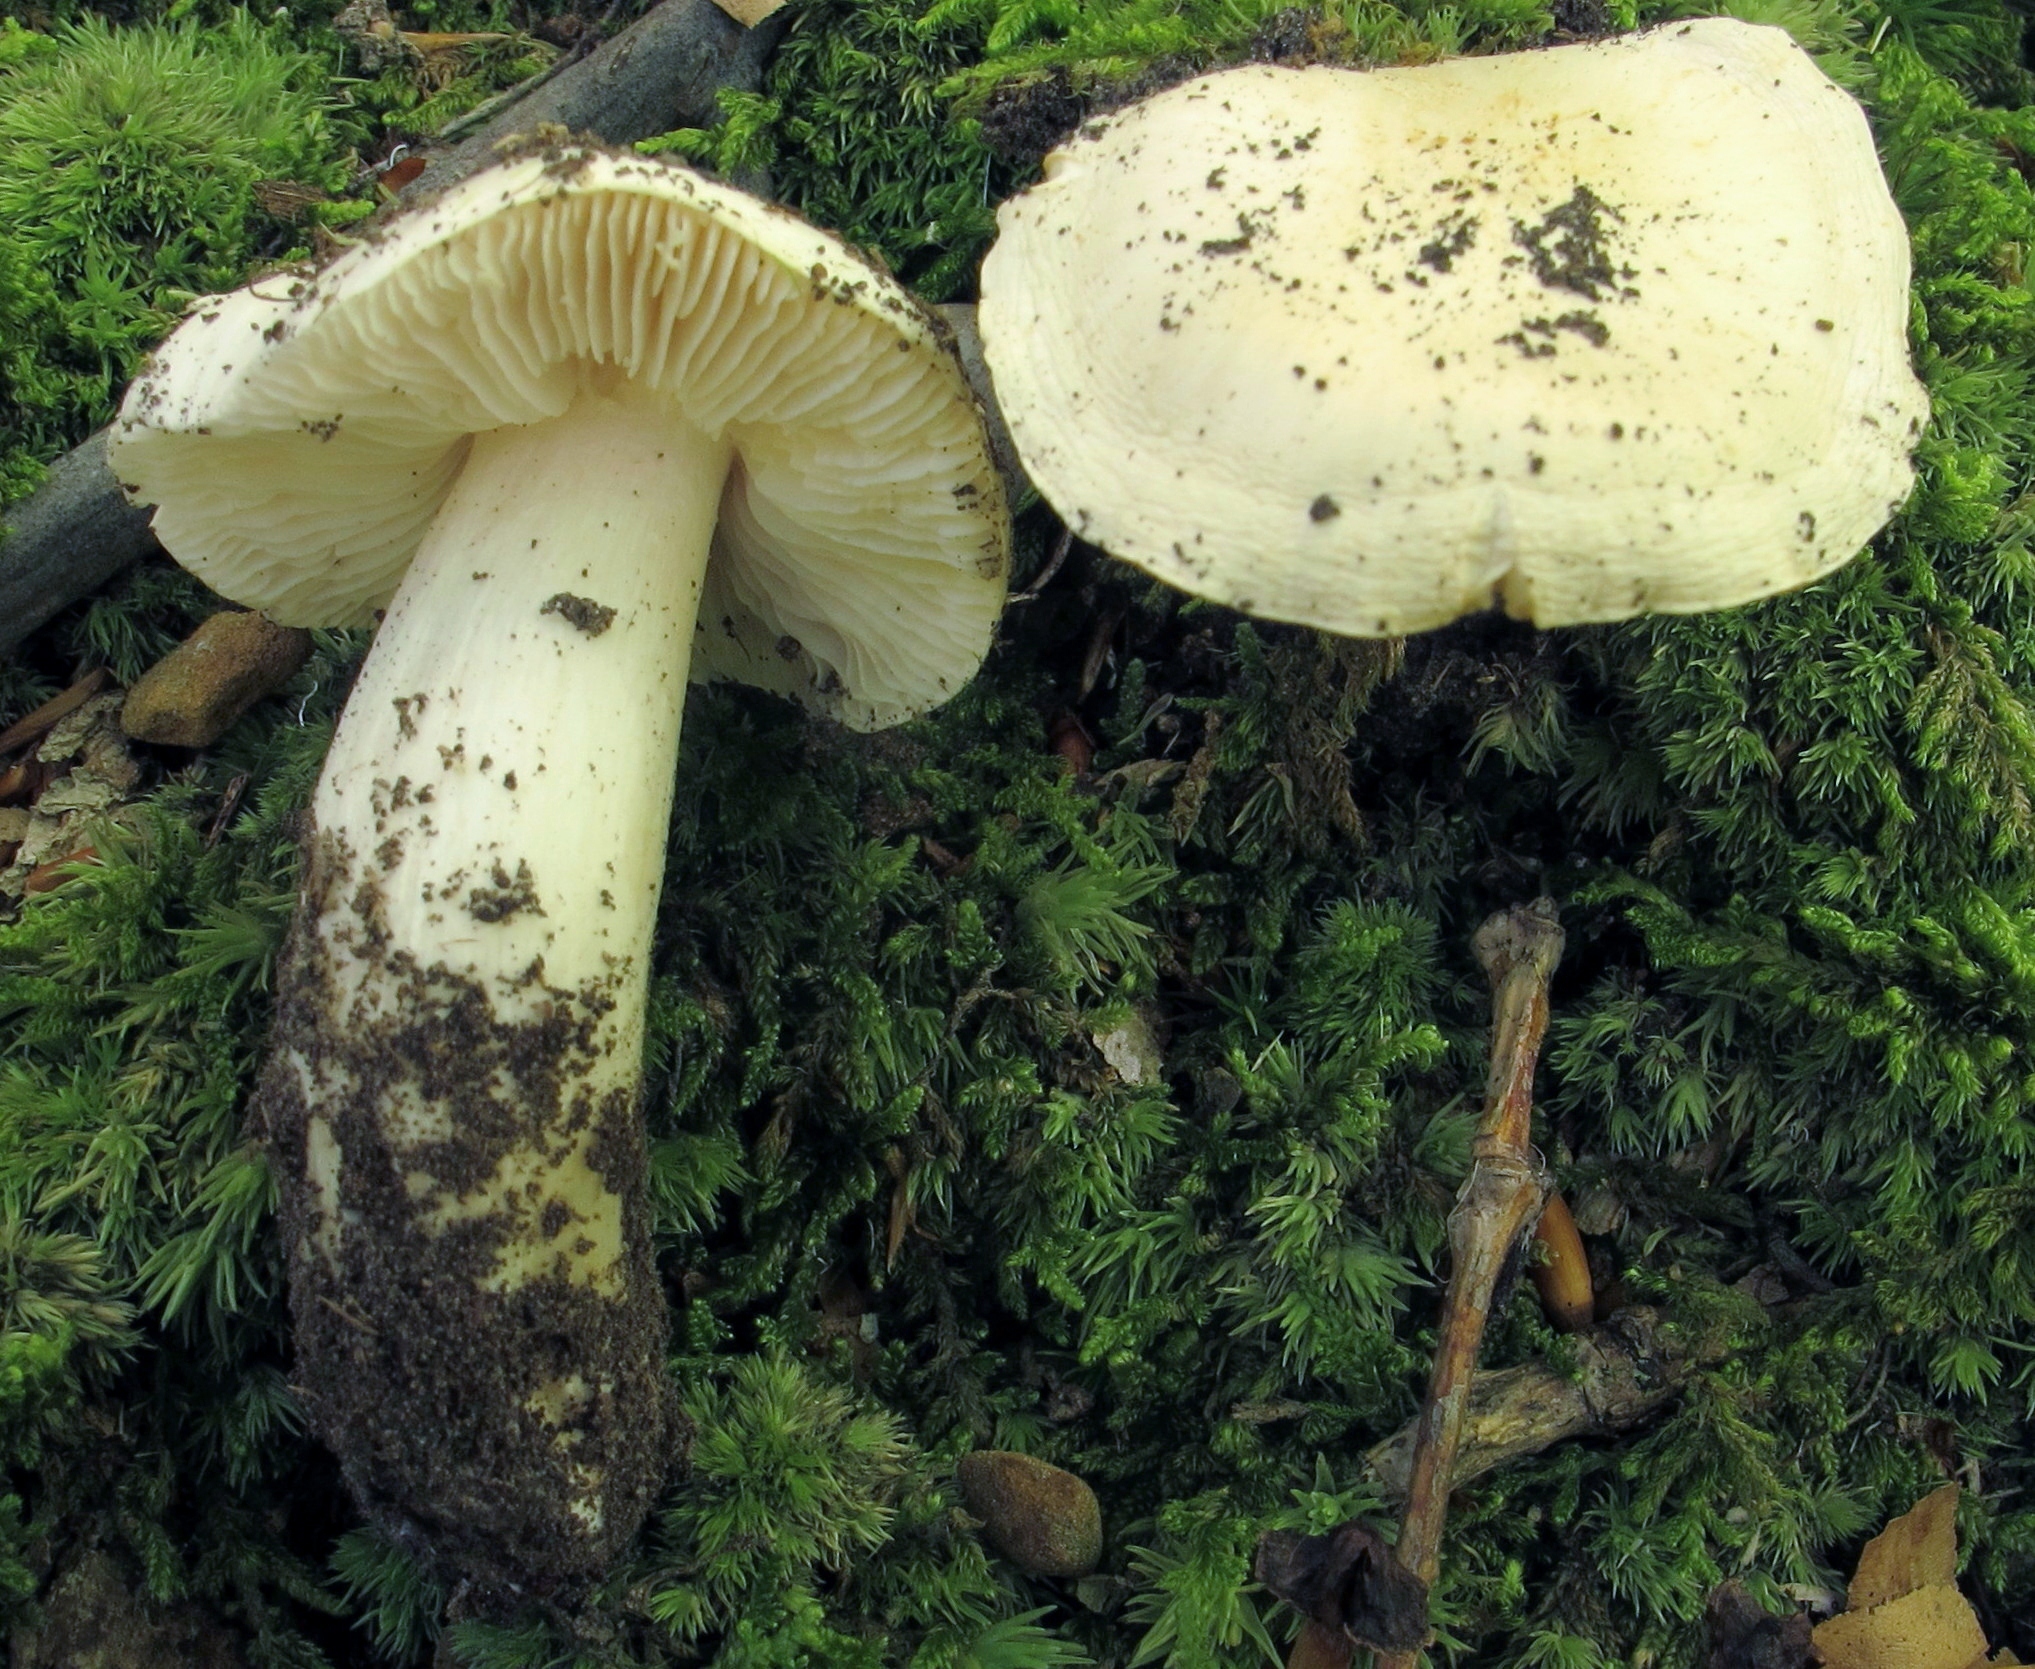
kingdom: Fungi
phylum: Basidiomycota
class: Agaricomycetes
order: Agaricales
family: Tricholomataceae
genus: Tricholoma
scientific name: Tricholoma subresplendens
